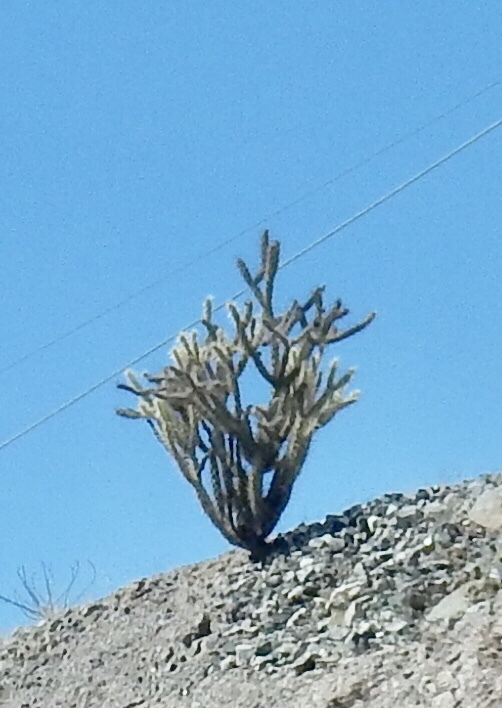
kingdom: Plantae
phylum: Tracheophyta
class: Magnoliopsida
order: Caryophyllales
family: Cactaceae
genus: Cylindropuntia
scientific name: Cylindropuntia acanthocarpa
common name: Buckhorn cholla
